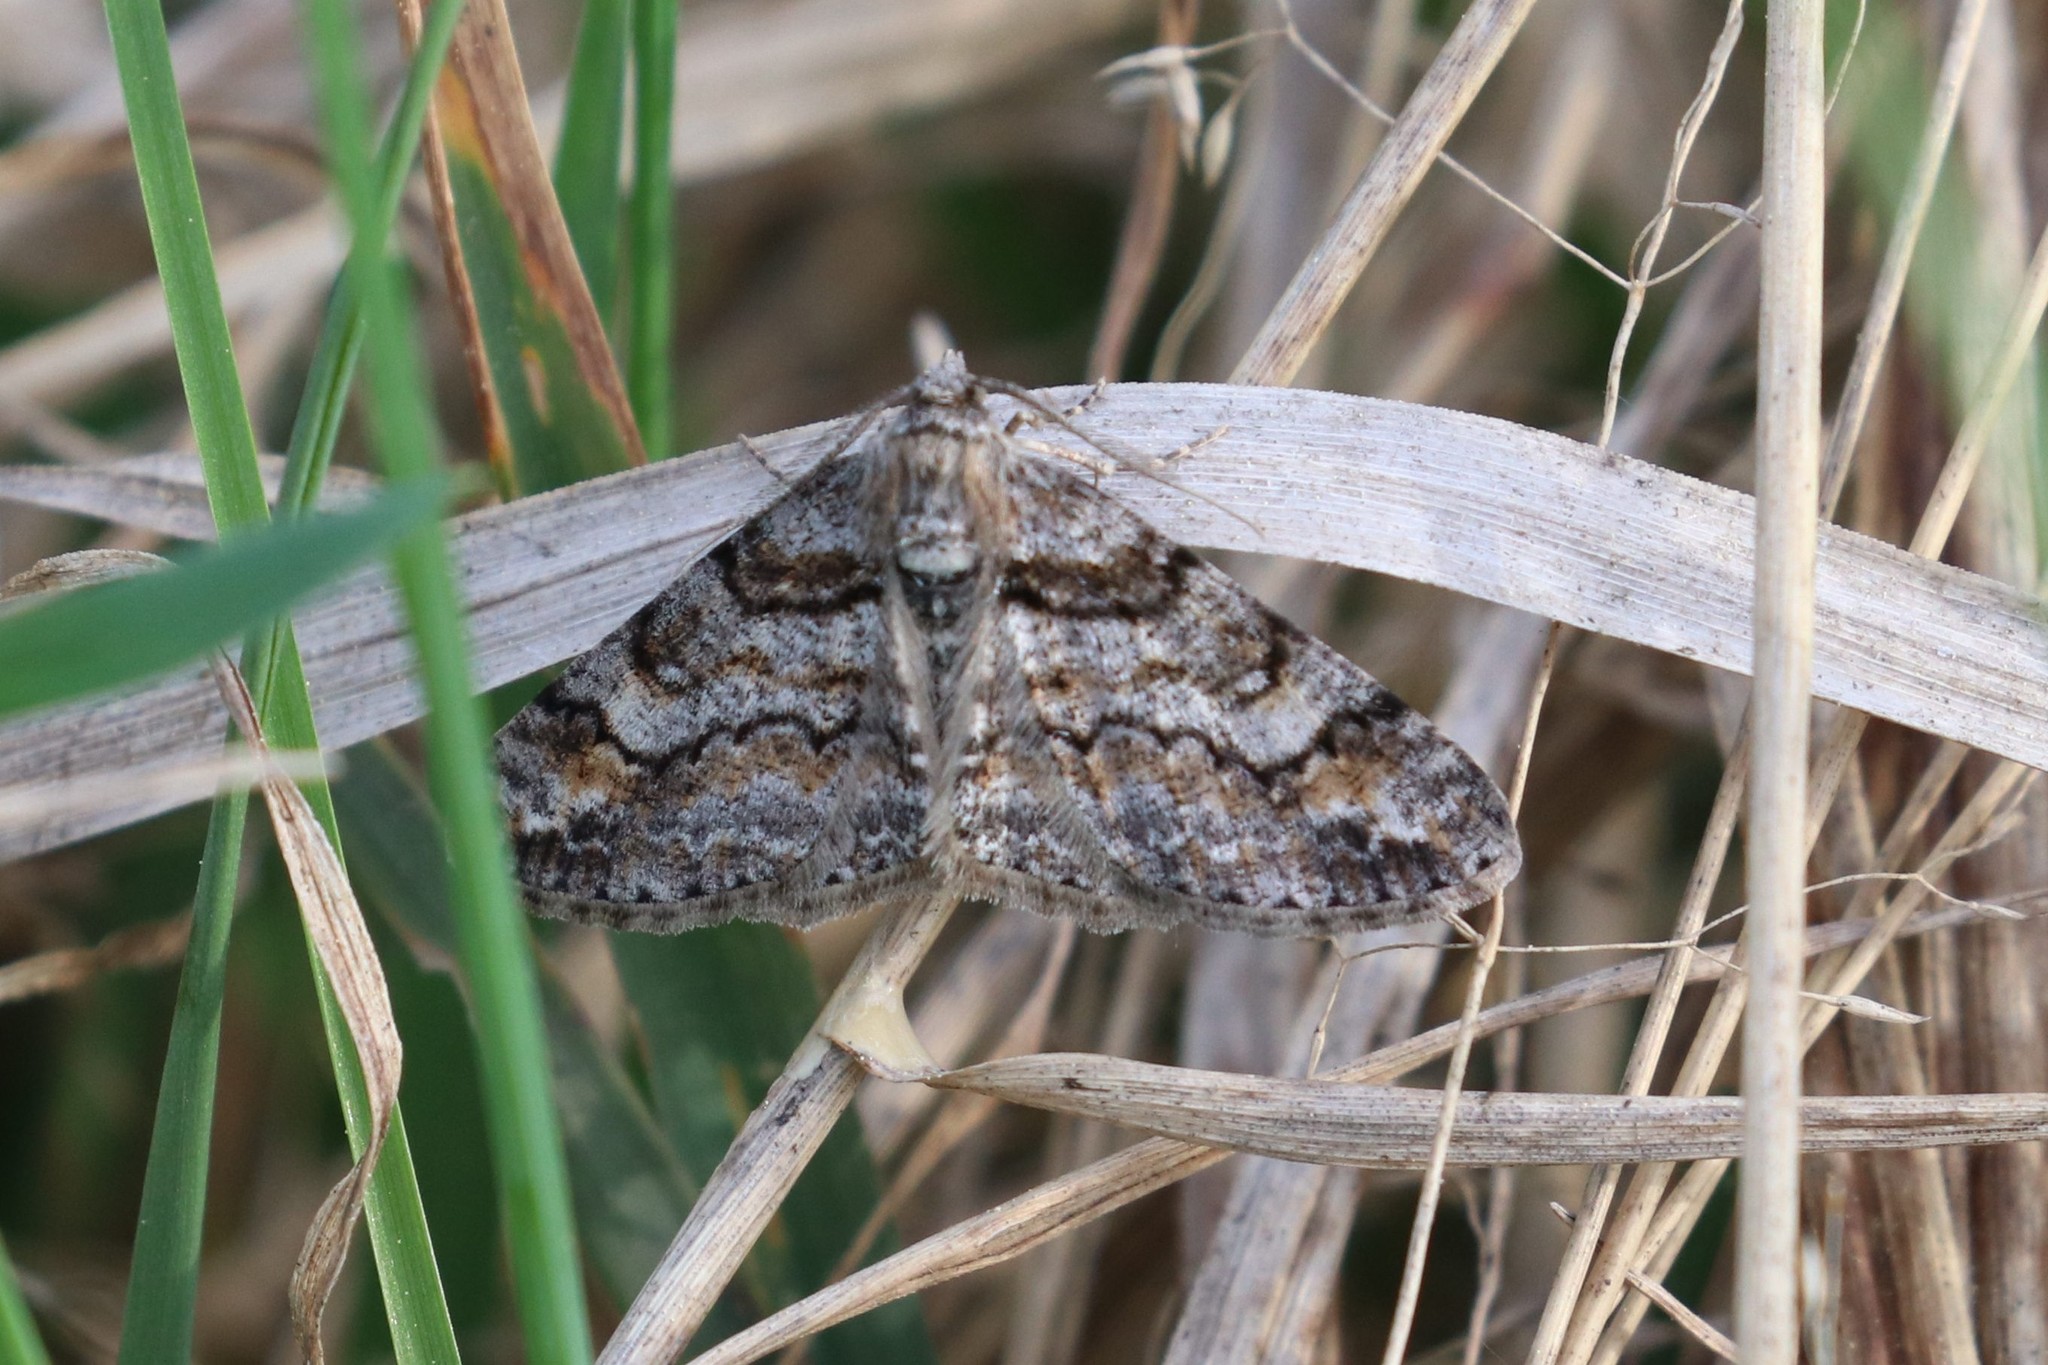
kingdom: Animalia
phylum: Arthropoda
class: Insecta
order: Lepidoptera
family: Geometridae
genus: Cleora
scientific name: Cleora cinctaria
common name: Ringed carpet
